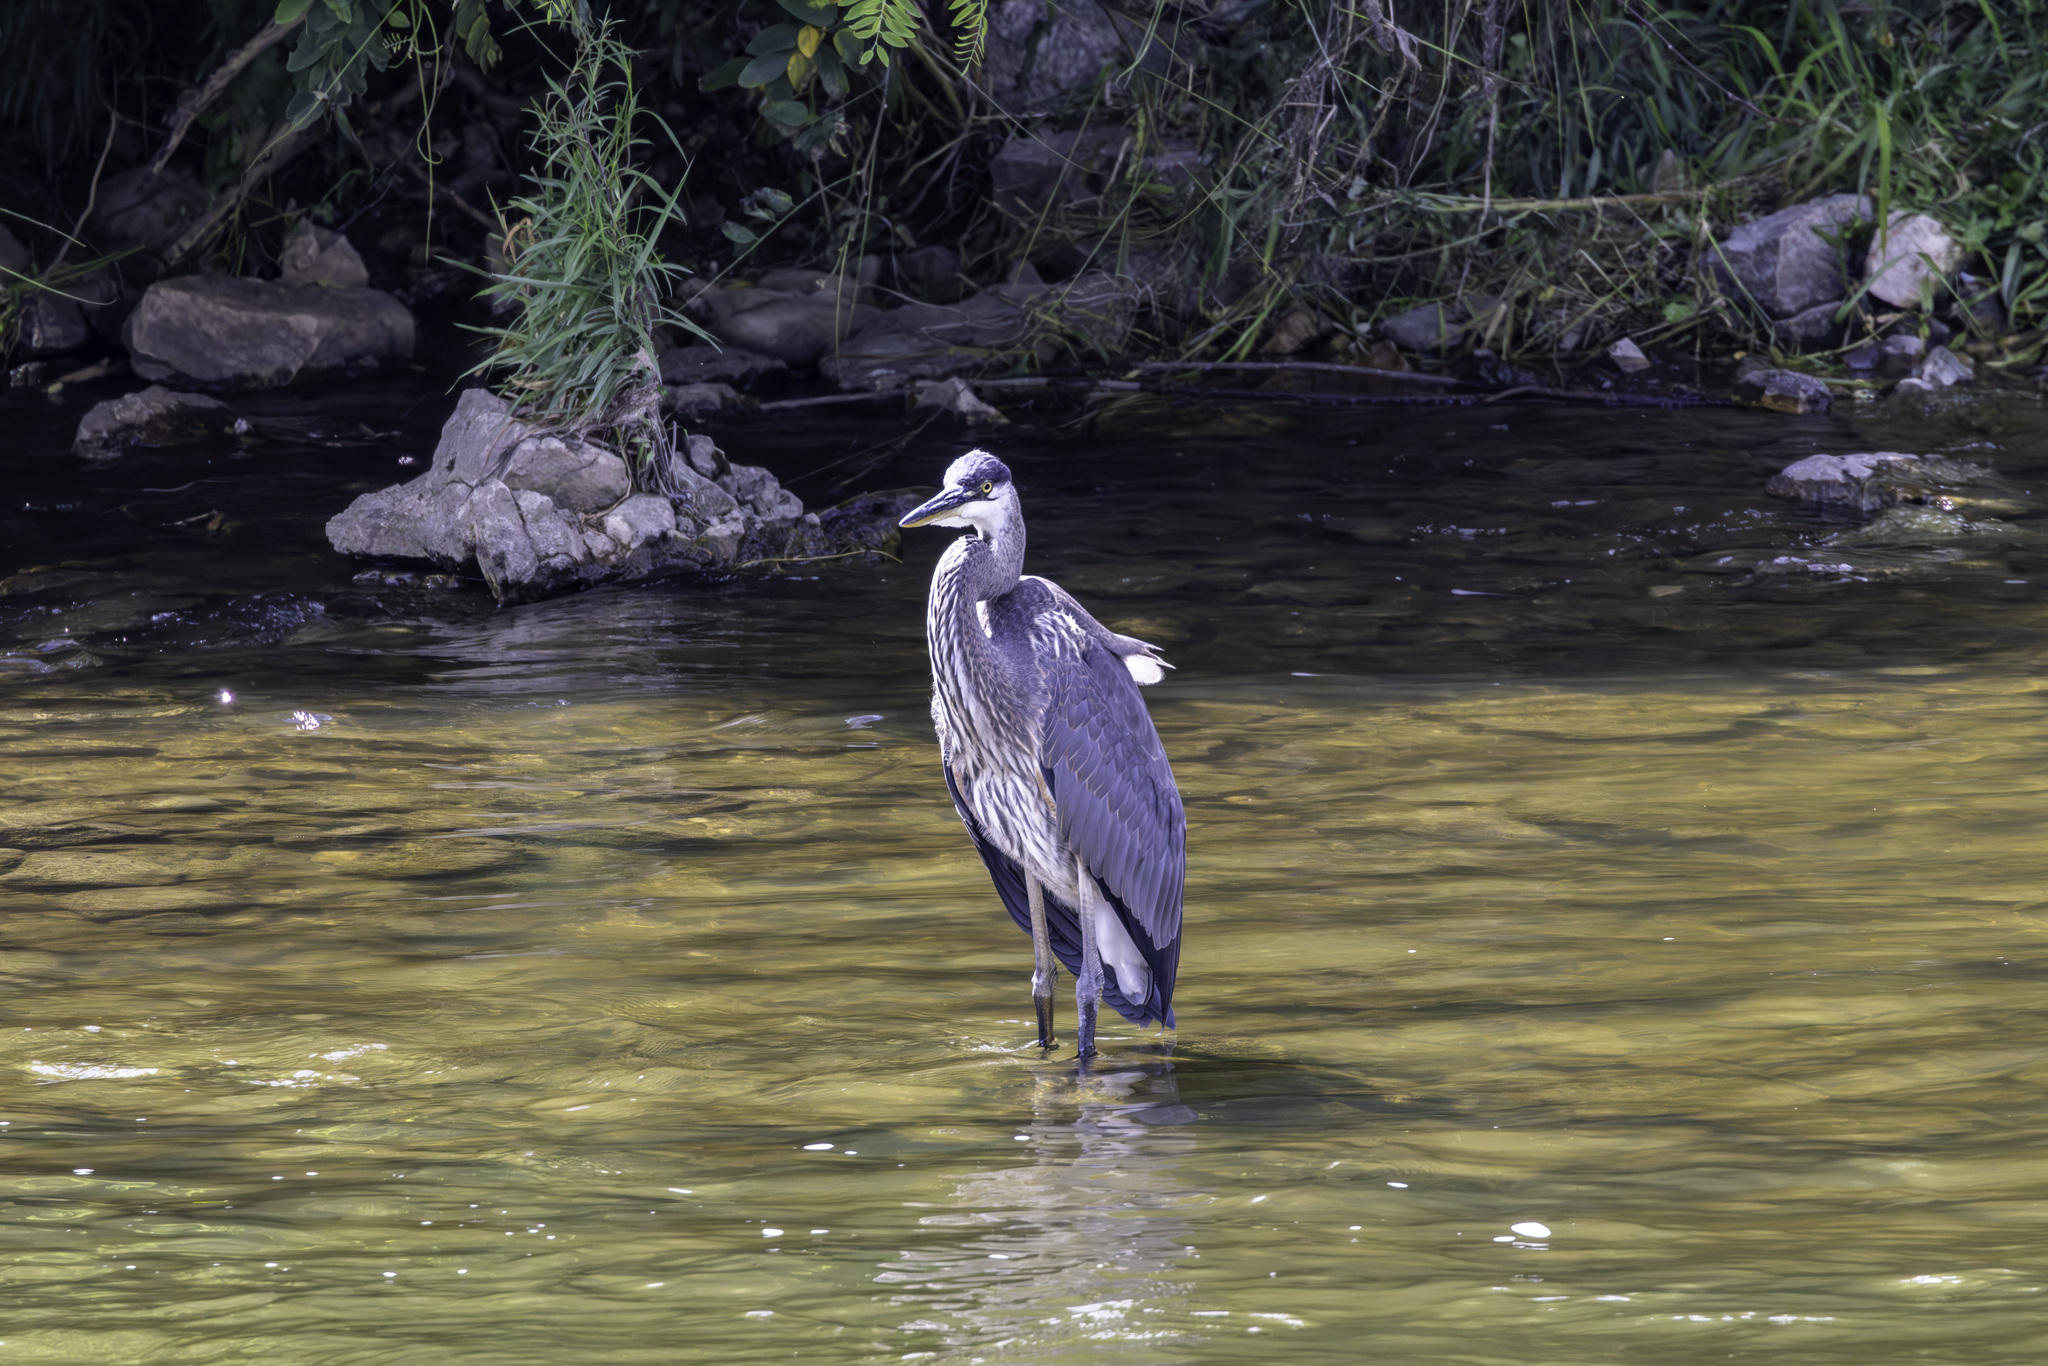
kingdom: Animalia
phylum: Chordata
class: Aves
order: Pelecaniformes
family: Ardeidae
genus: Ardea
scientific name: Ardea herodias
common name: Great blue heron
